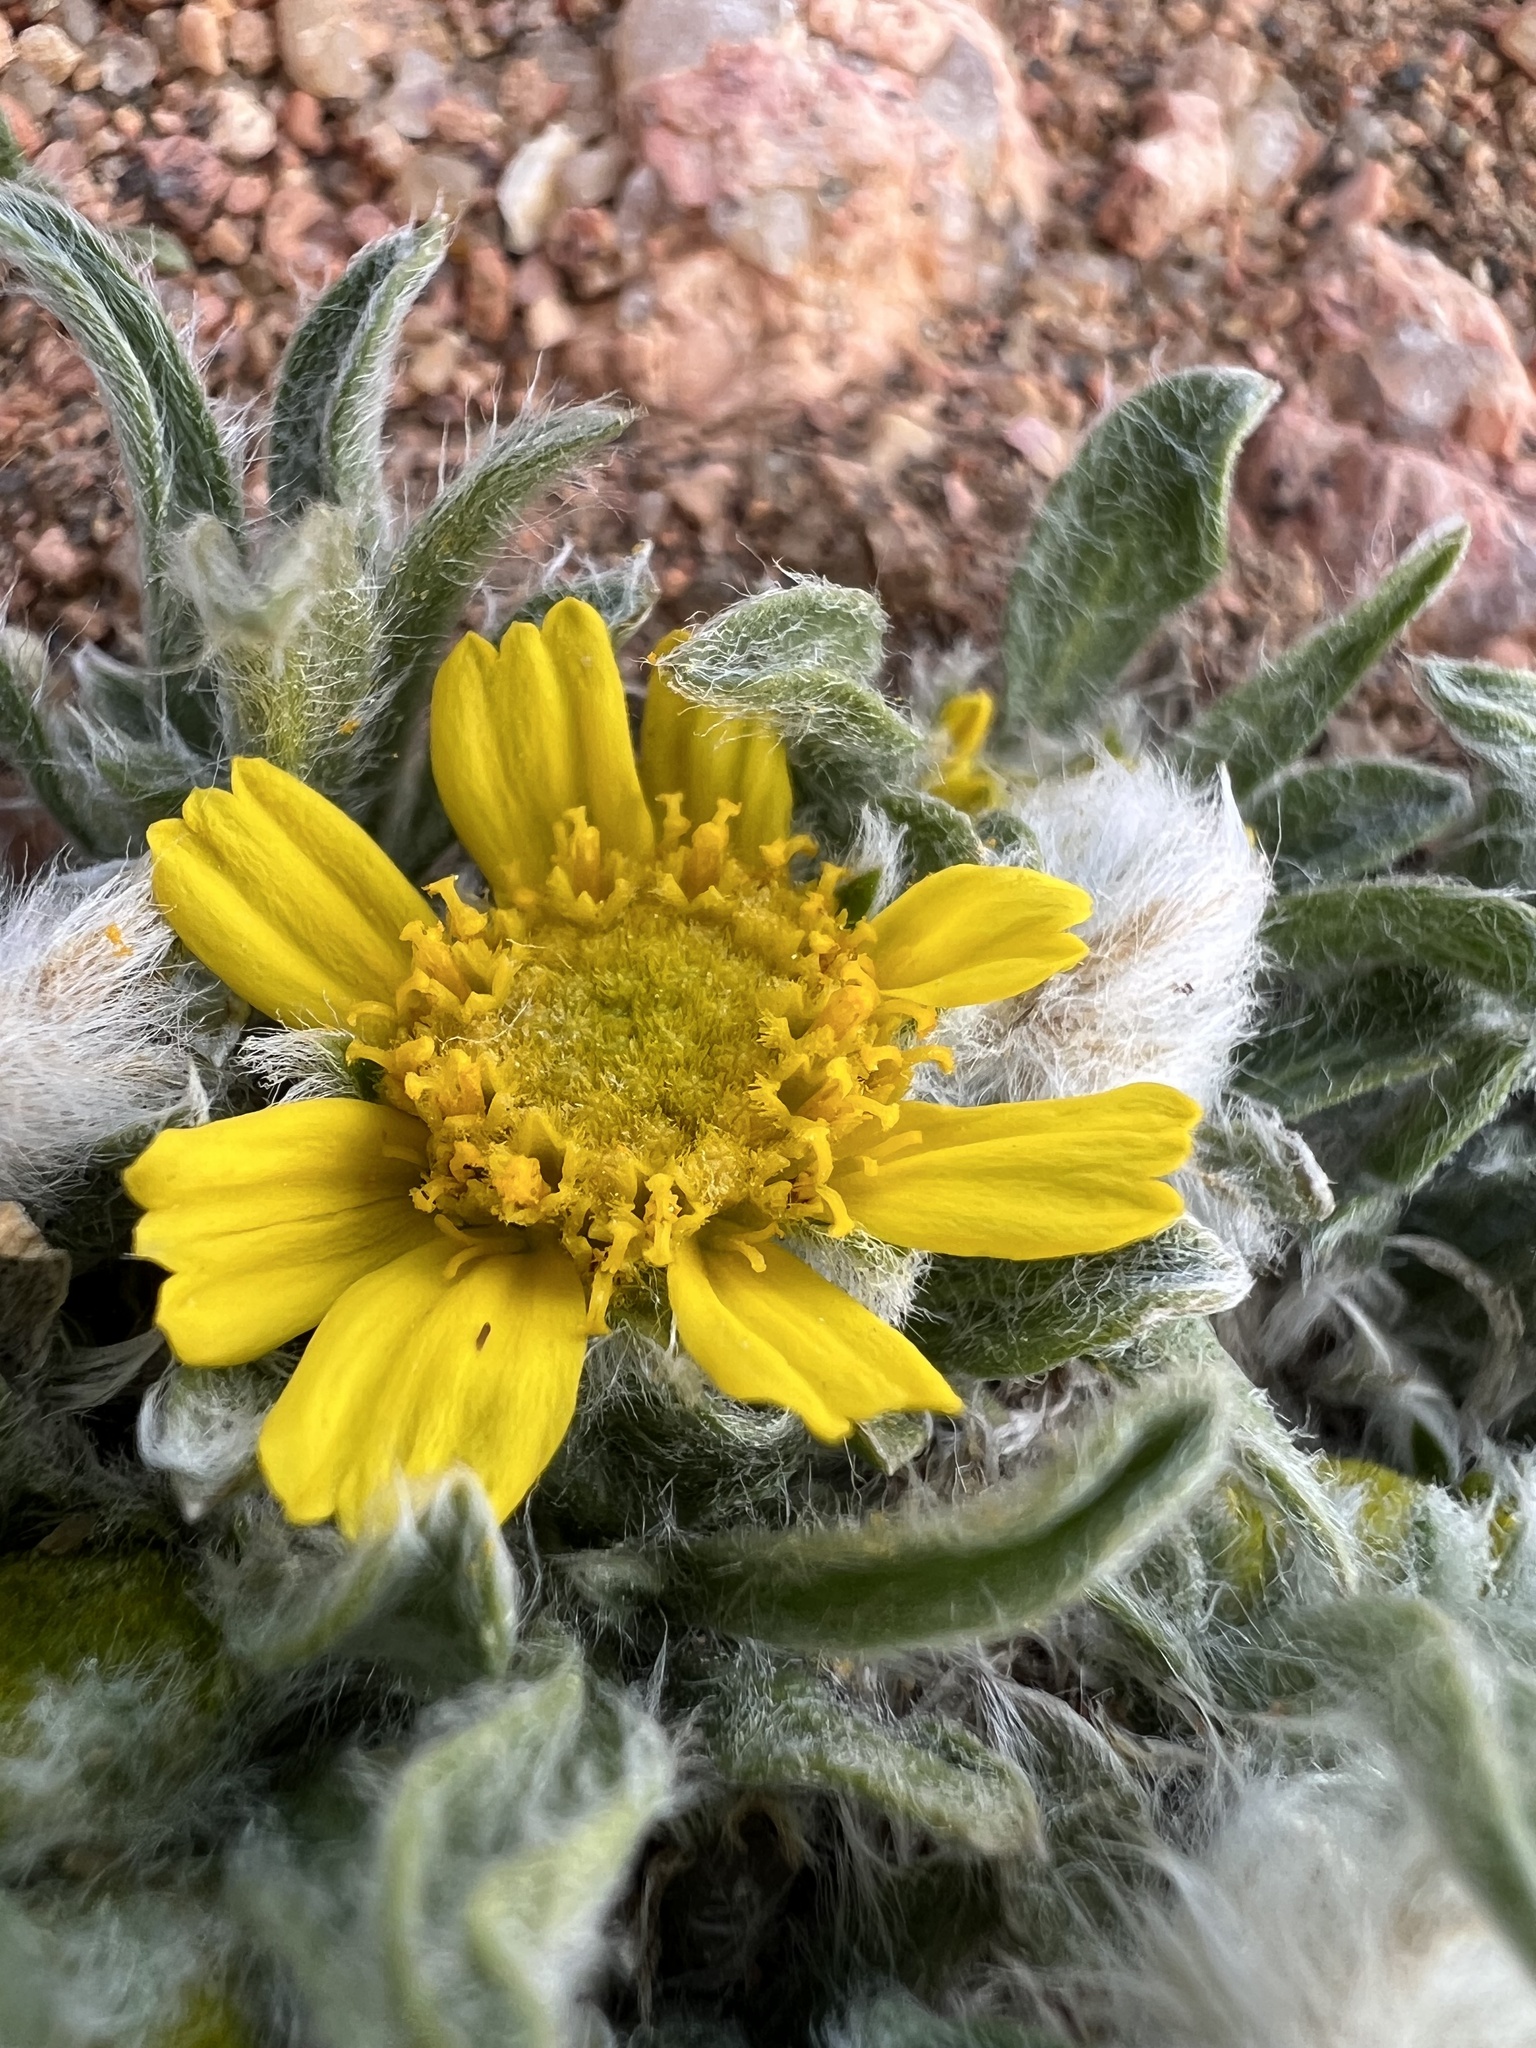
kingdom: Plantae
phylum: Tracheophyta
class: Magnoliopsida
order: Asterales
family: Asteraceae
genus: Tetraneuris
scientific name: Tetraneuris acaulis
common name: Butte marigold
